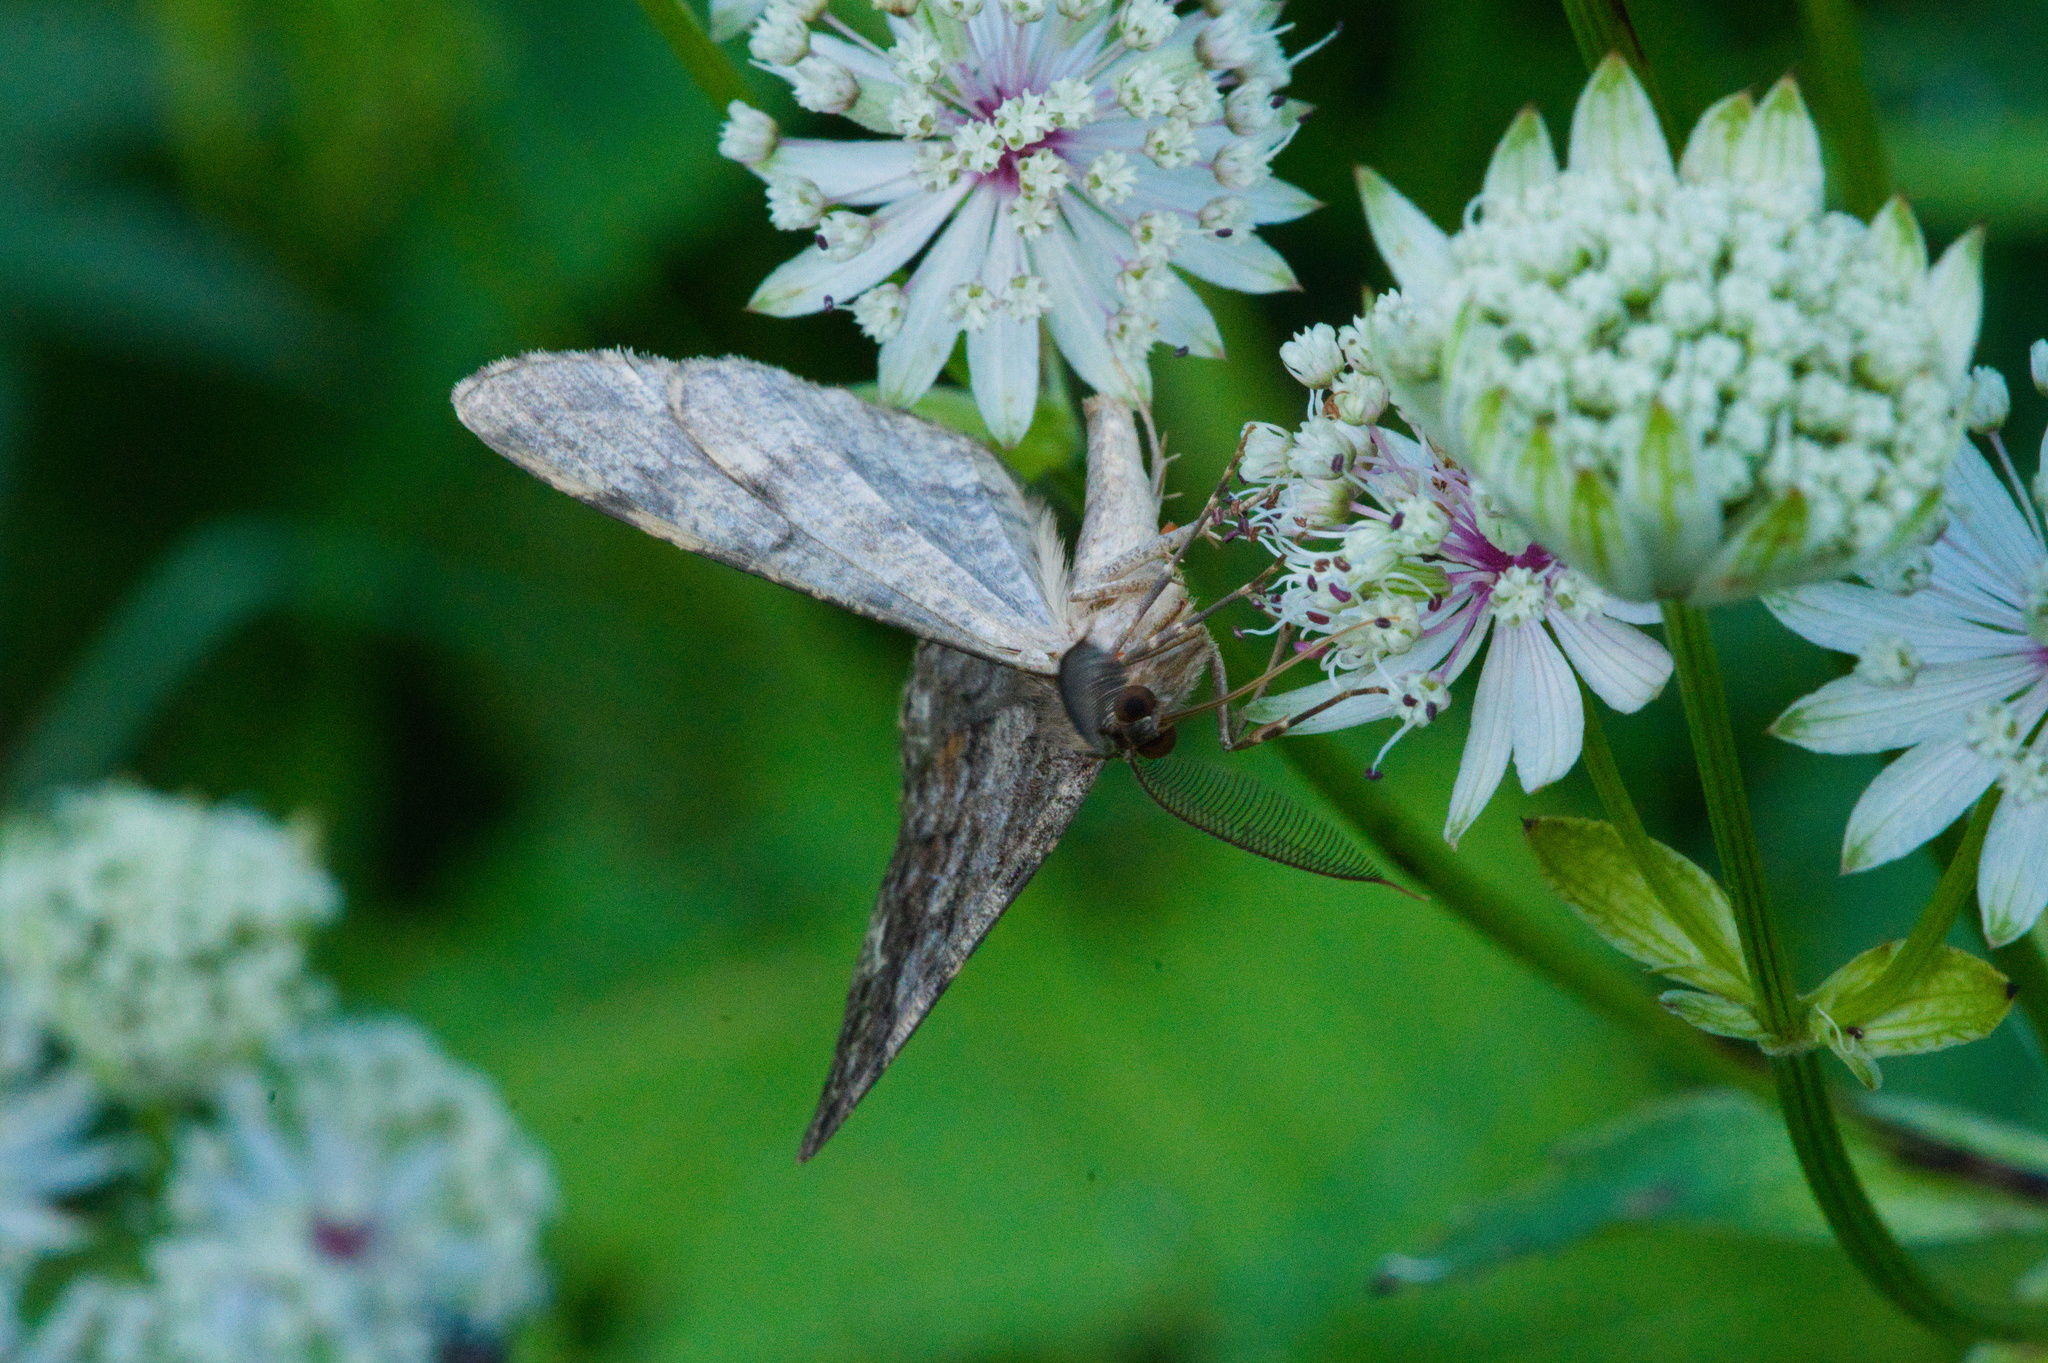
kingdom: Animalia
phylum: Arthropoda
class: Insecta
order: Lepidoptera
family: Geometridae
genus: Alcis
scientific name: Alcis repandata
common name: Mottled beauty
